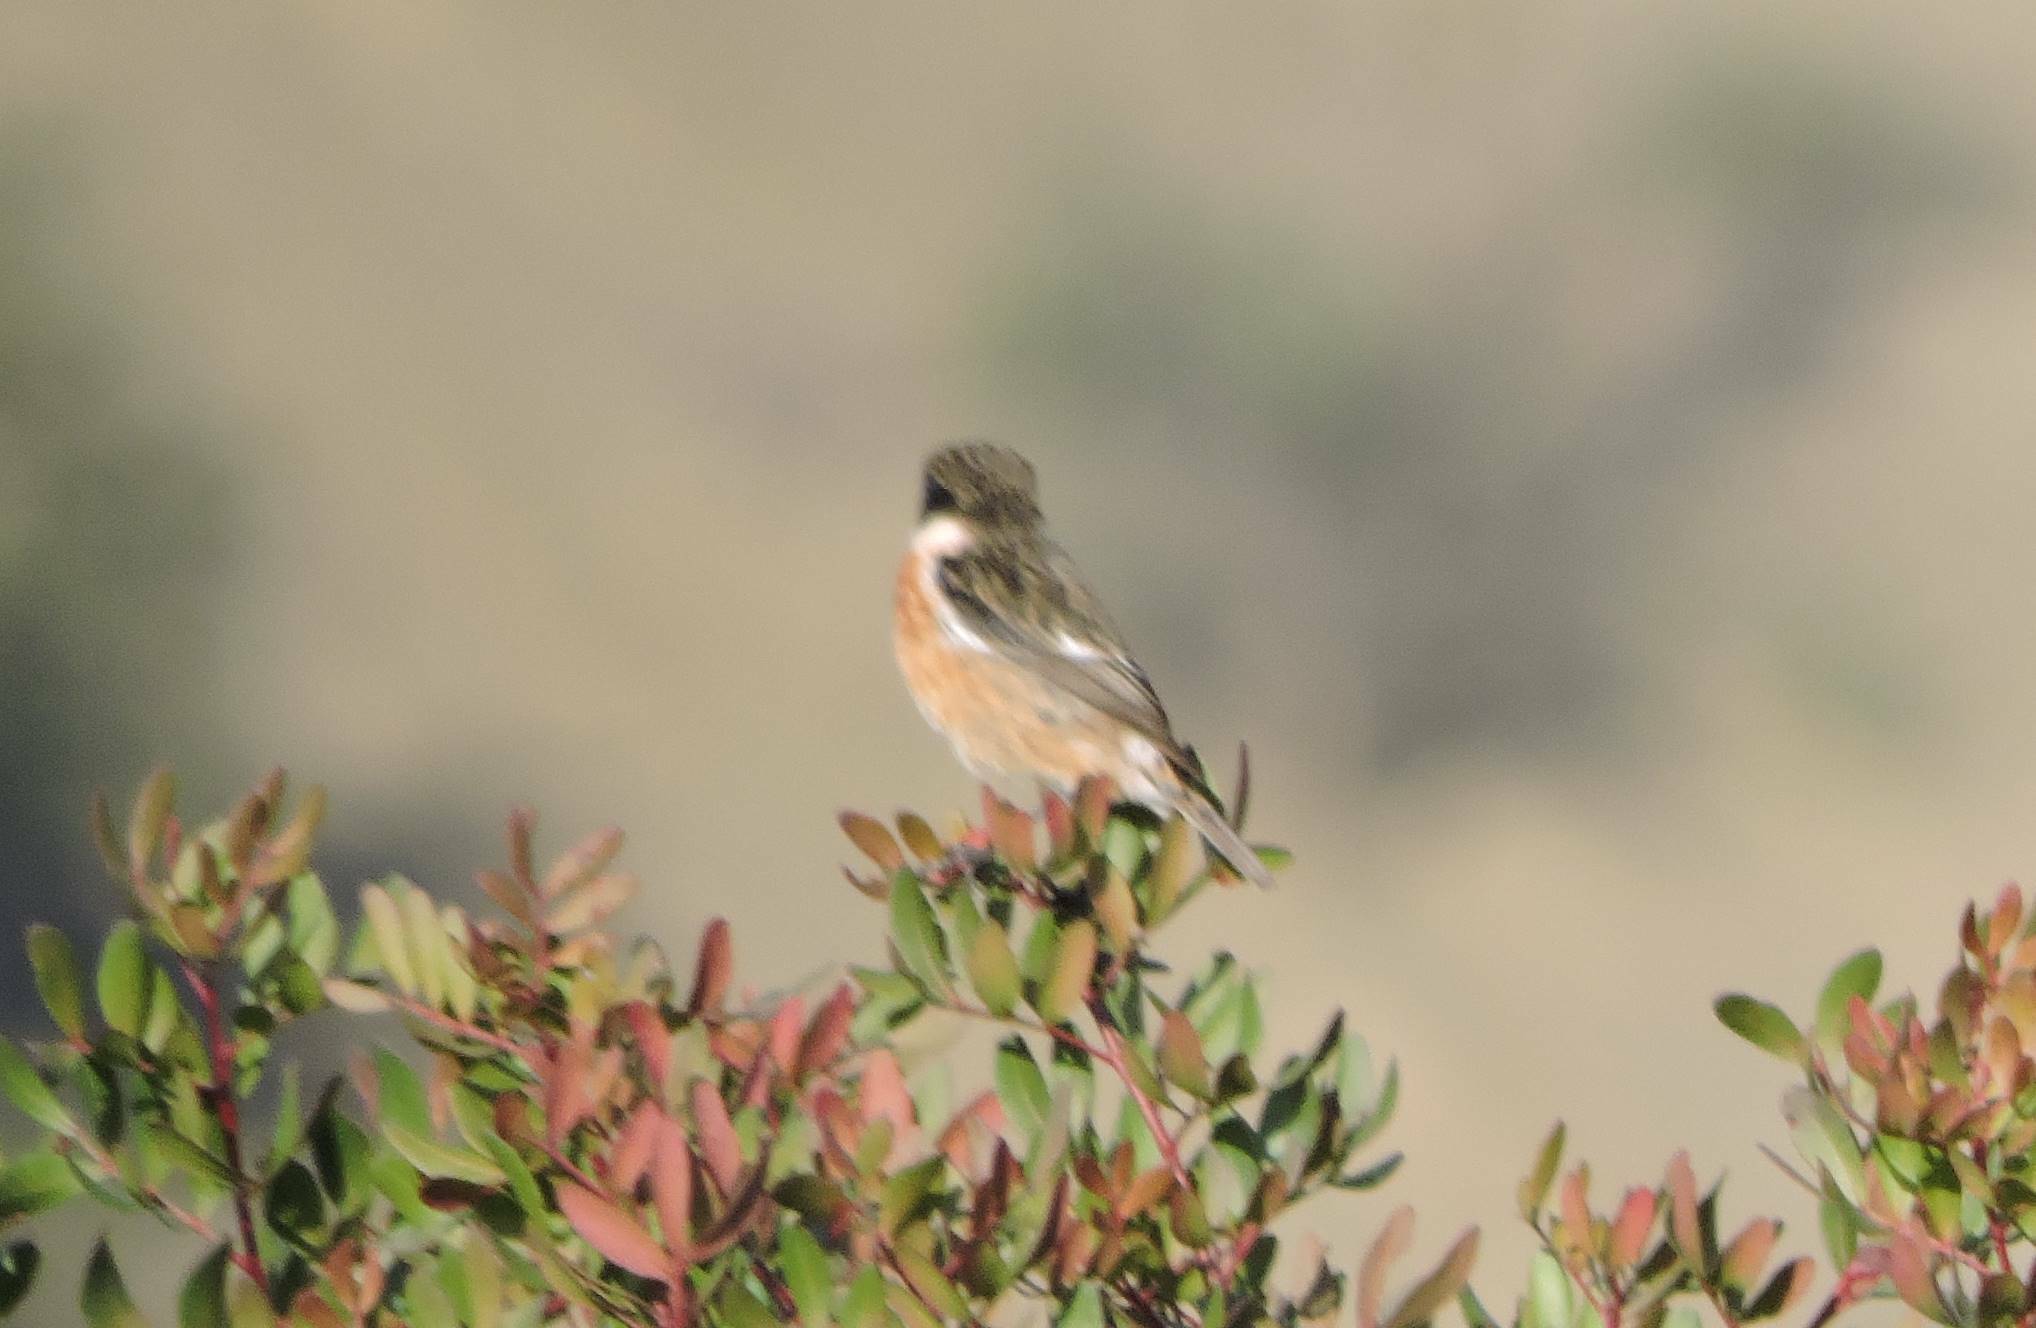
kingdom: Animalia
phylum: Chordata
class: Aves
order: Passeriformes
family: Muscicapidae
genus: Saxicola
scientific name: Saxicola rubicola
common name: European stonechat
